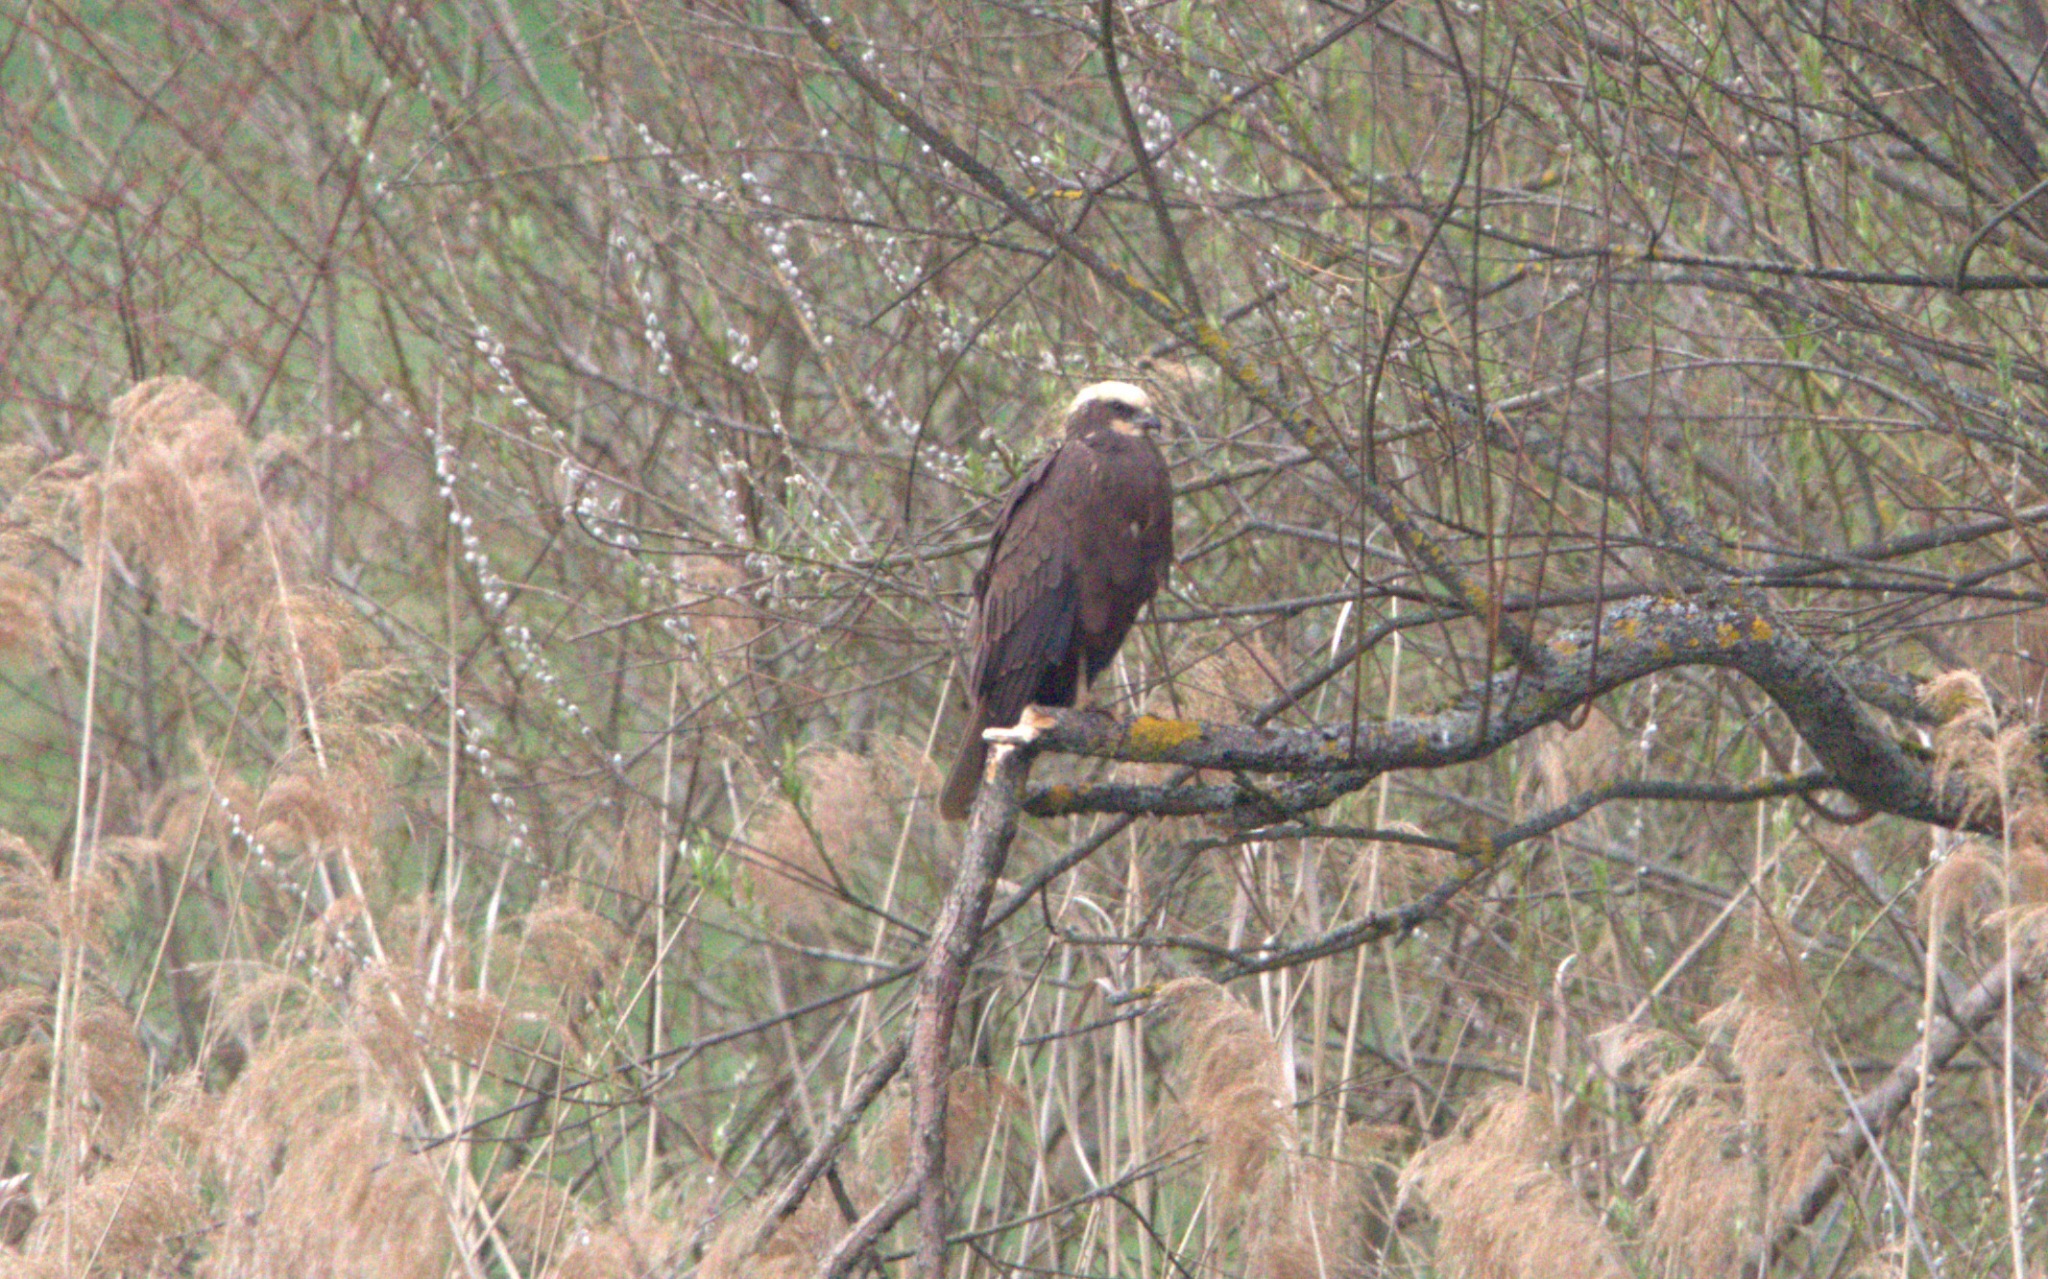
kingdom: Animalia
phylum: Chordata
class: Aves
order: Accipitriformes
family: Accipitridae
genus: Circus
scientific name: Circus aeruginosus
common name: Western marsh harrier
